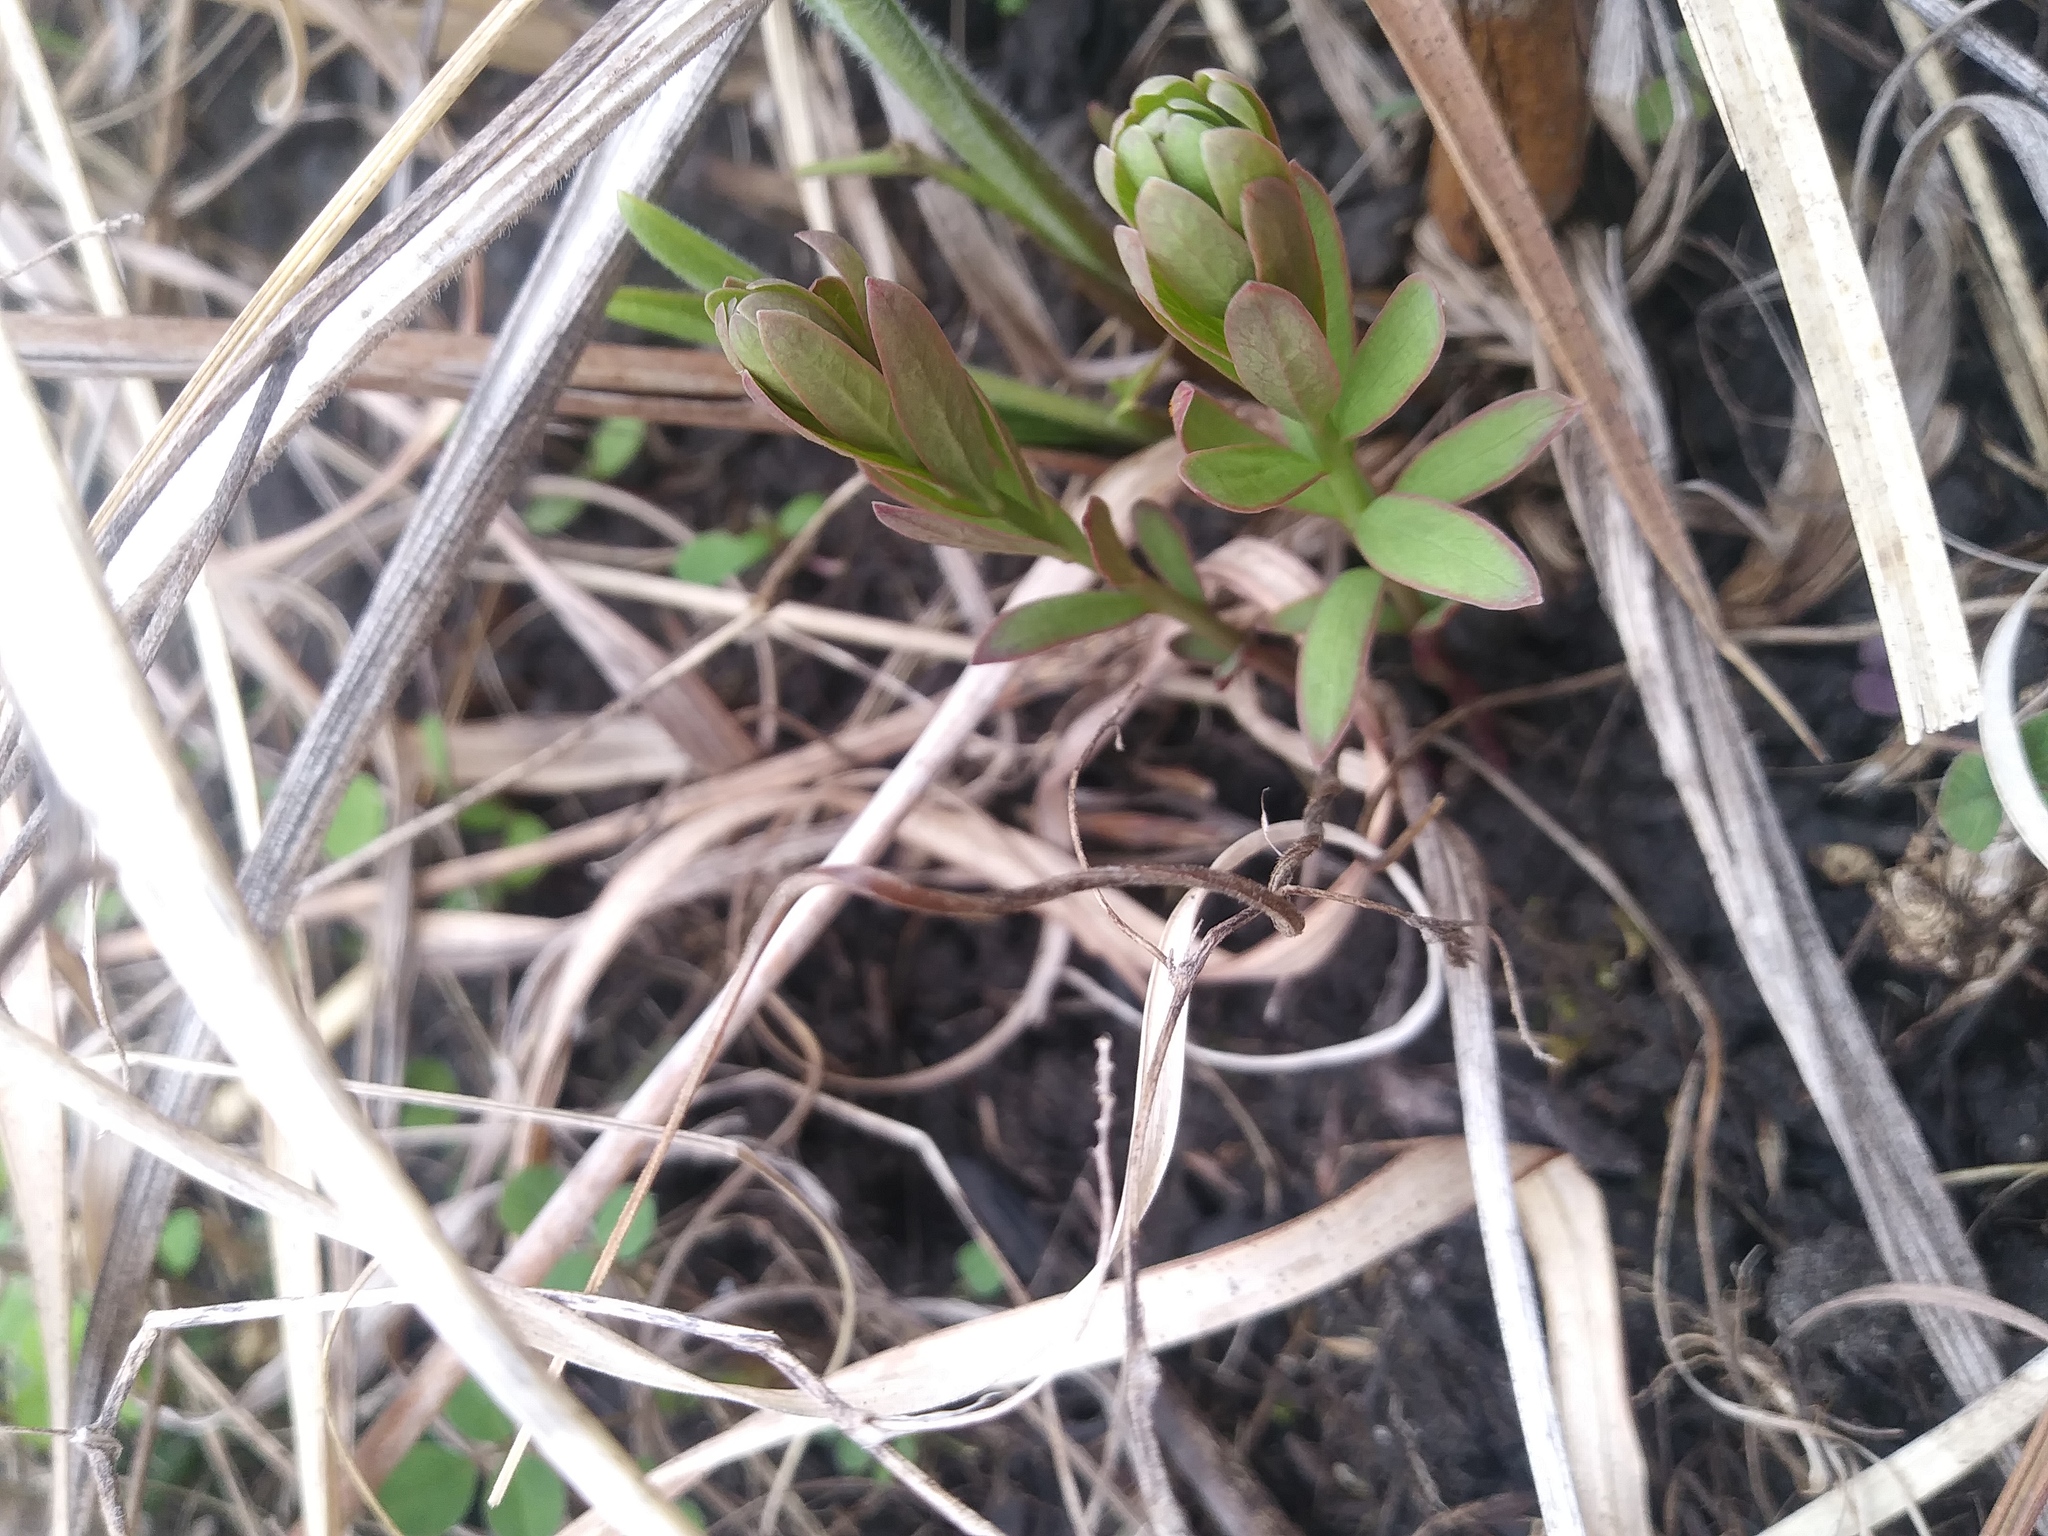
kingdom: Plantae
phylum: Tracheophyta
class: Magnoliopsida
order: Santalales
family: Comandraceae
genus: Comandra
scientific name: Comandra umbellata
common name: Bastard toadflax
